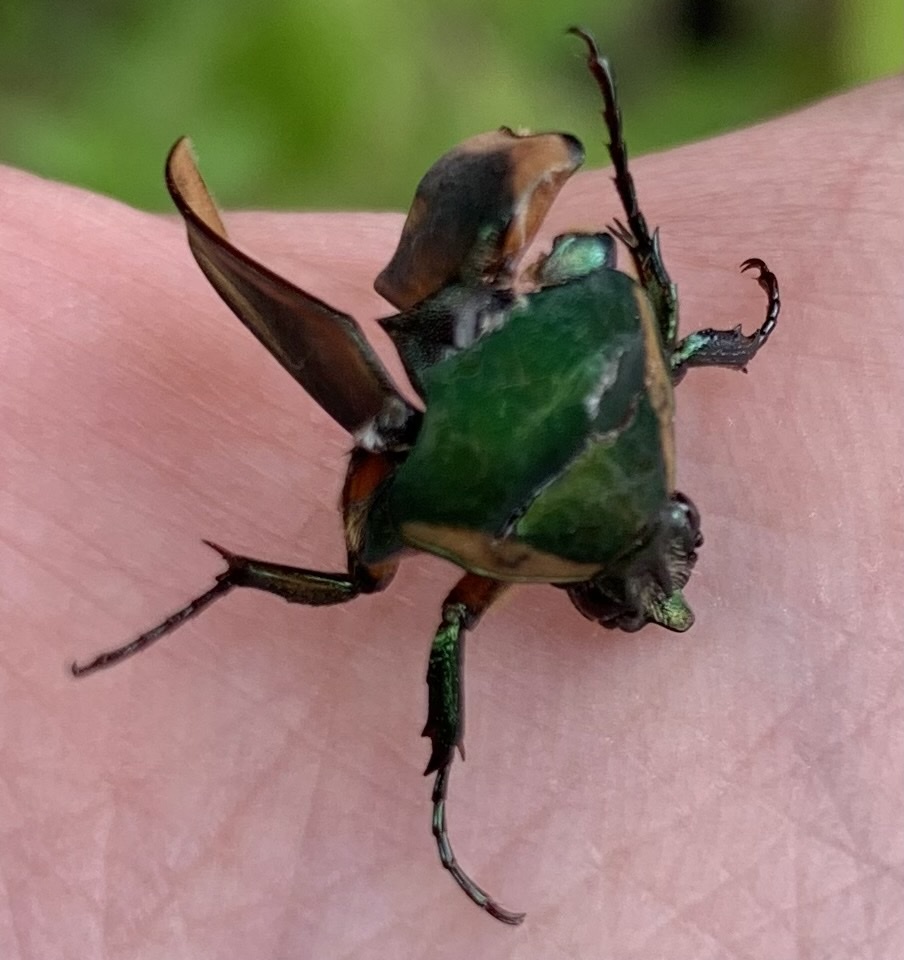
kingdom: Animalia
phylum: Arthropoda
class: Insecta
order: Coleoptera
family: Scarabaeidae
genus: Cotinis
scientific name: Cotinis nitida
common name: Common green june beetle
